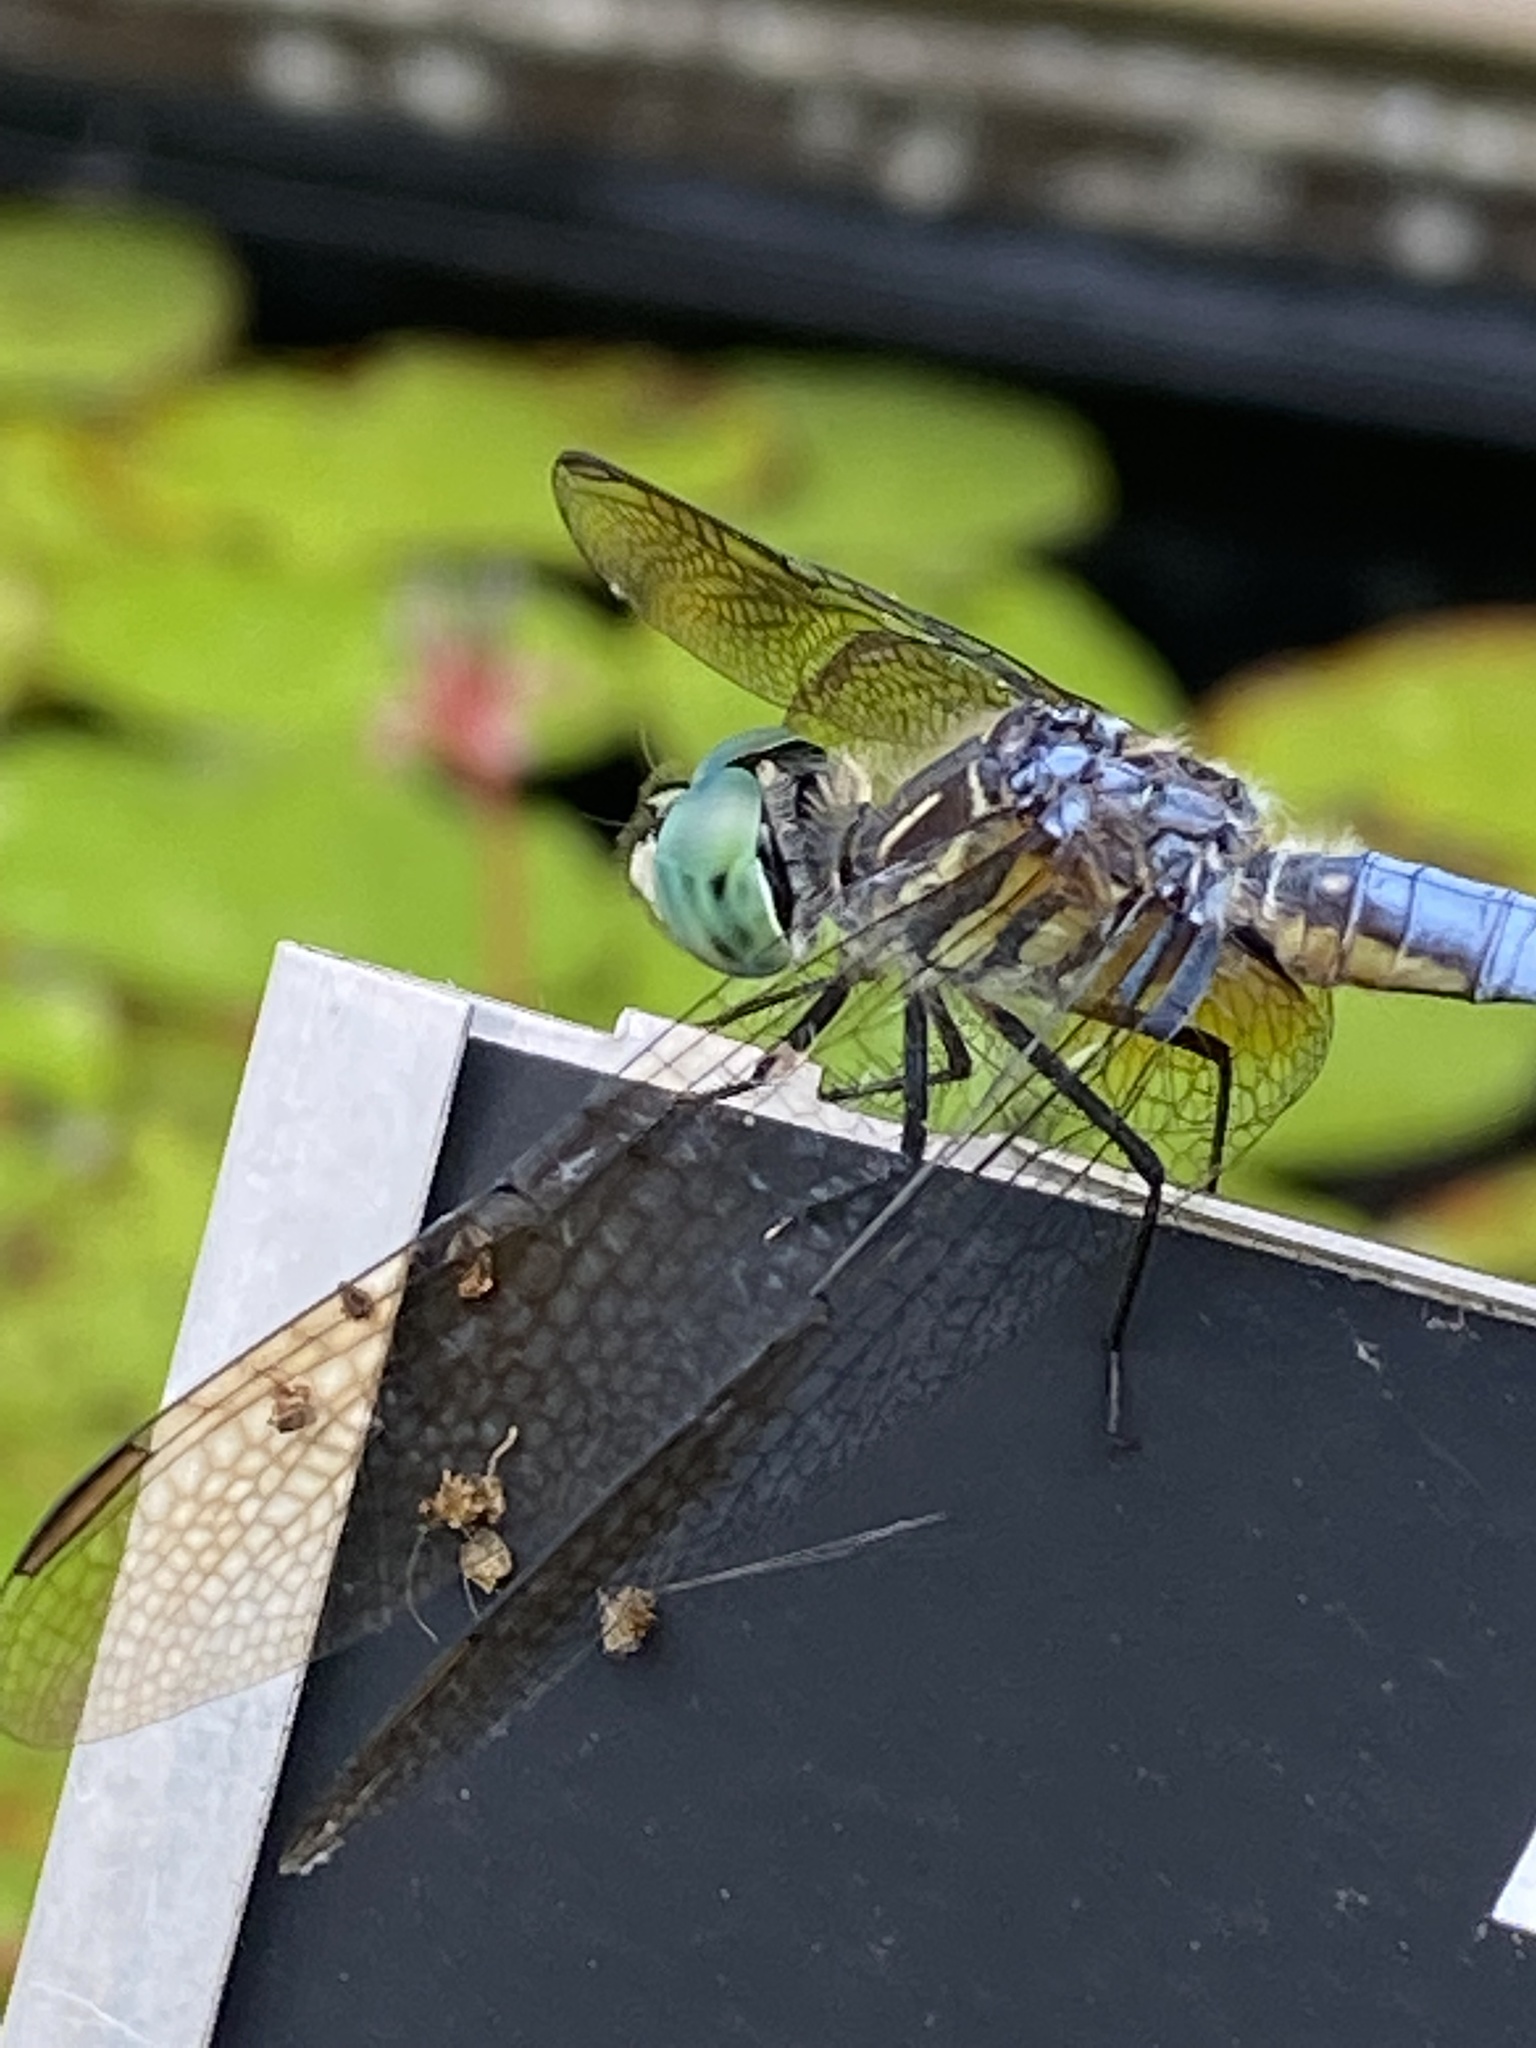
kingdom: Animalia
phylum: Arthropoda
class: Insecta
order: Odonata
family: Libellulidae
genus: Pachydiplax
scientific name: Pachydiplax longipennis
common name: Blue dasher
